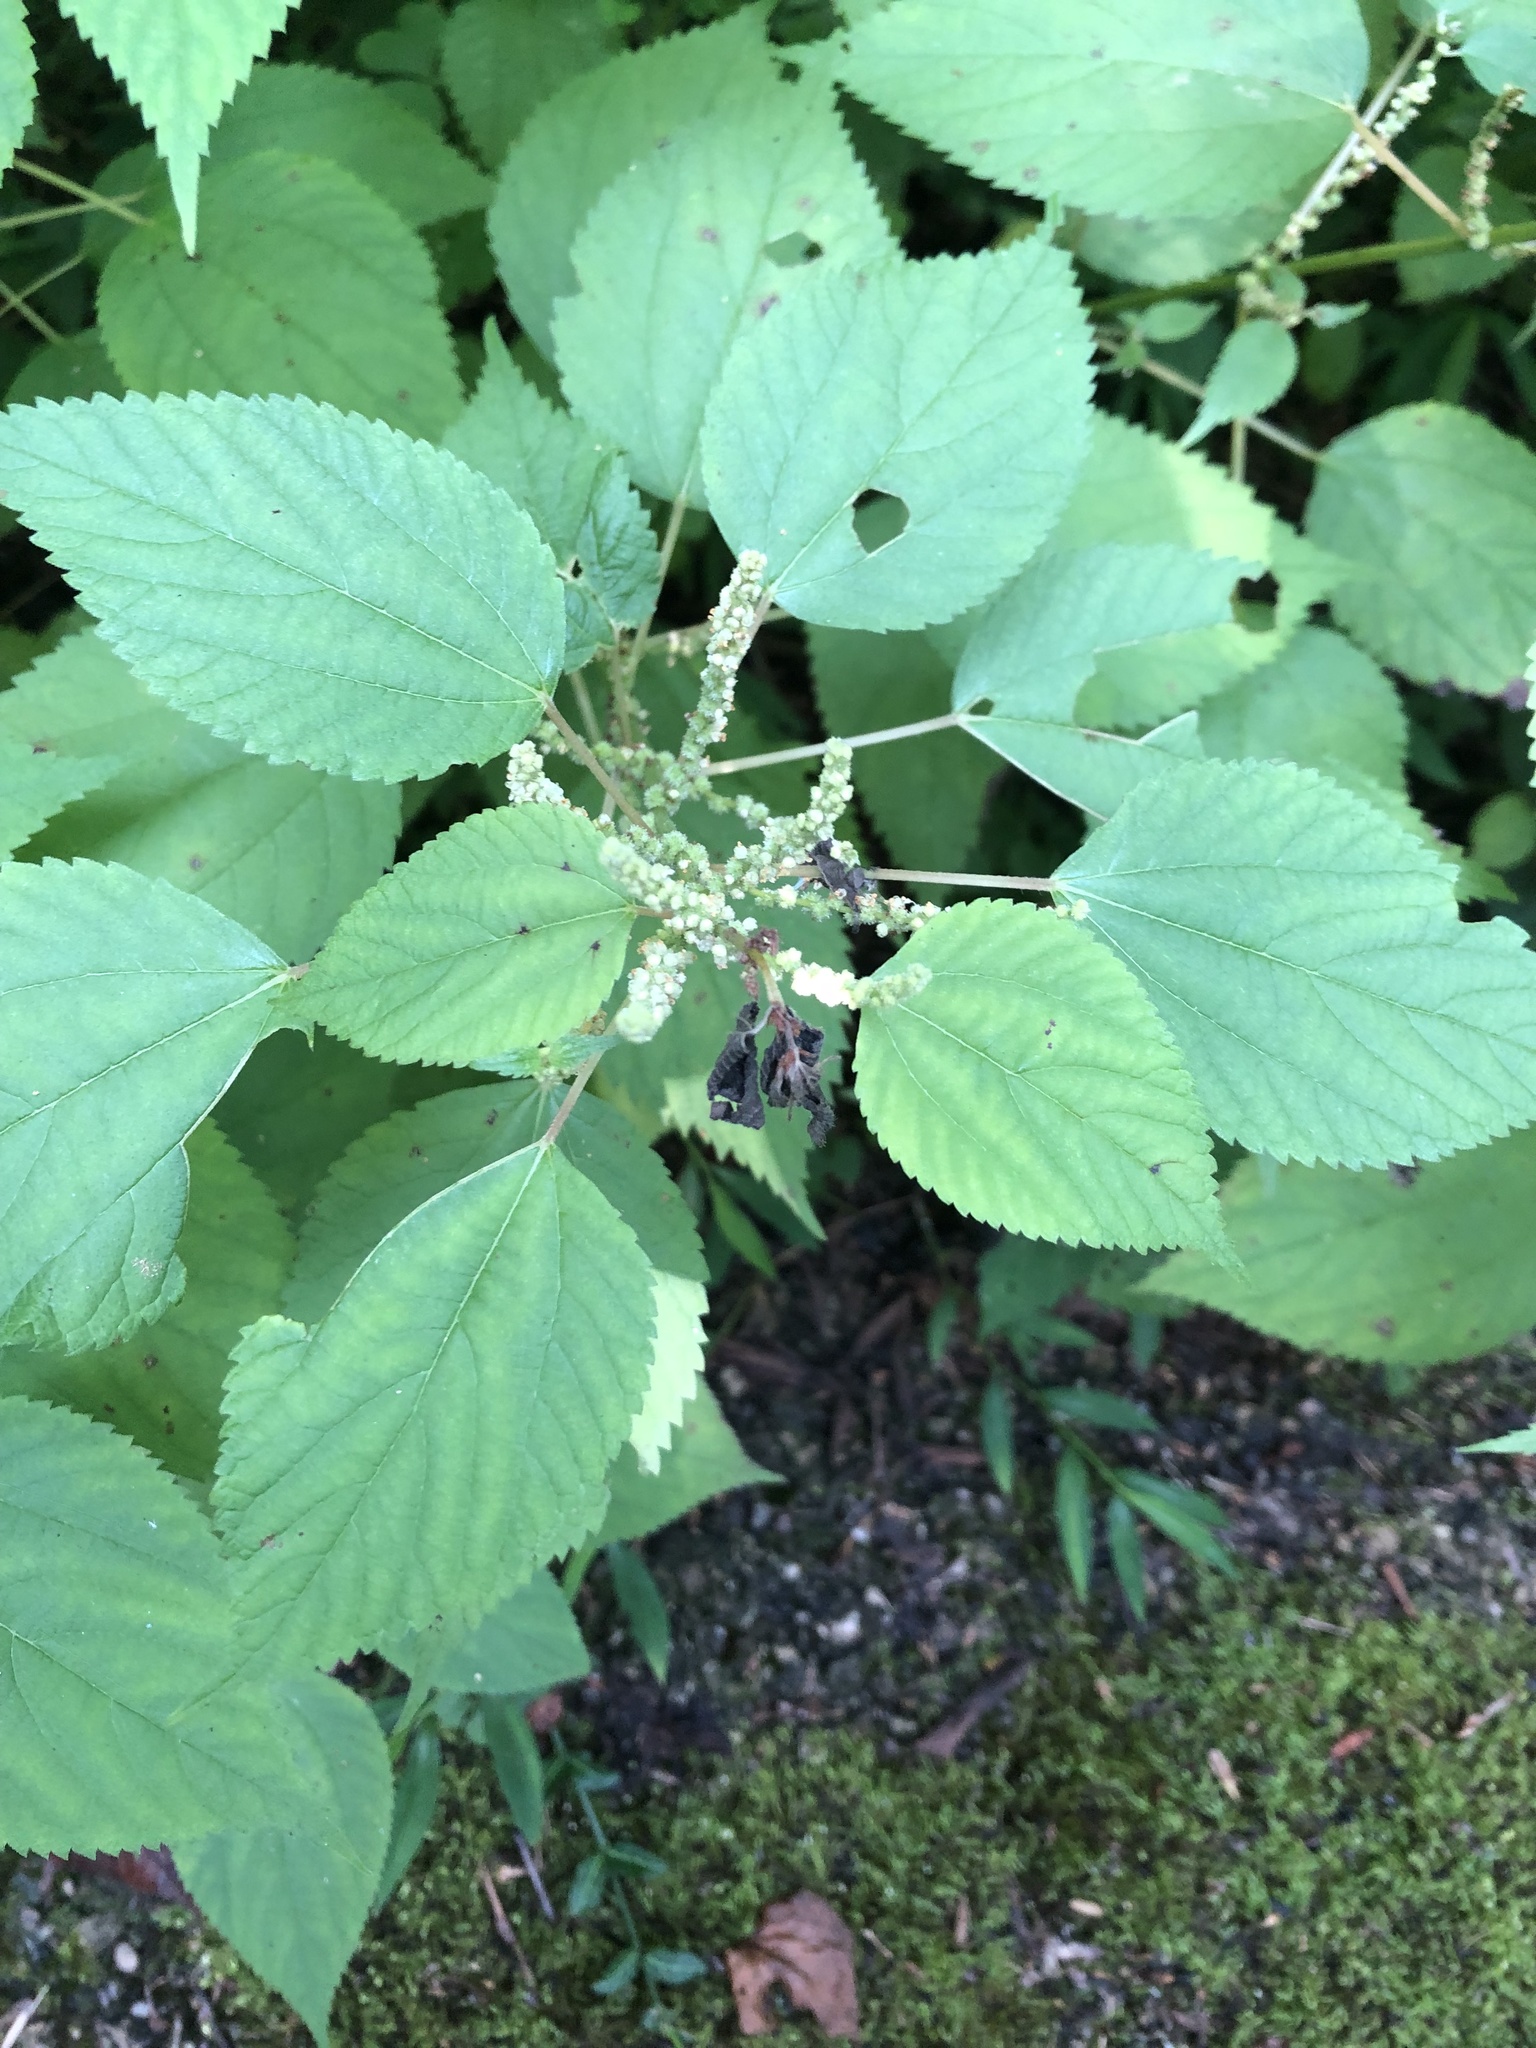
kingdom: Plantae
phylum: Tracheophyta
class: Magnoliopsida
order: Rosales
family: Urticaceae
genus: Boehmeria
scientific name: Boehmeria cylindrica
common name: Bog-hemp
